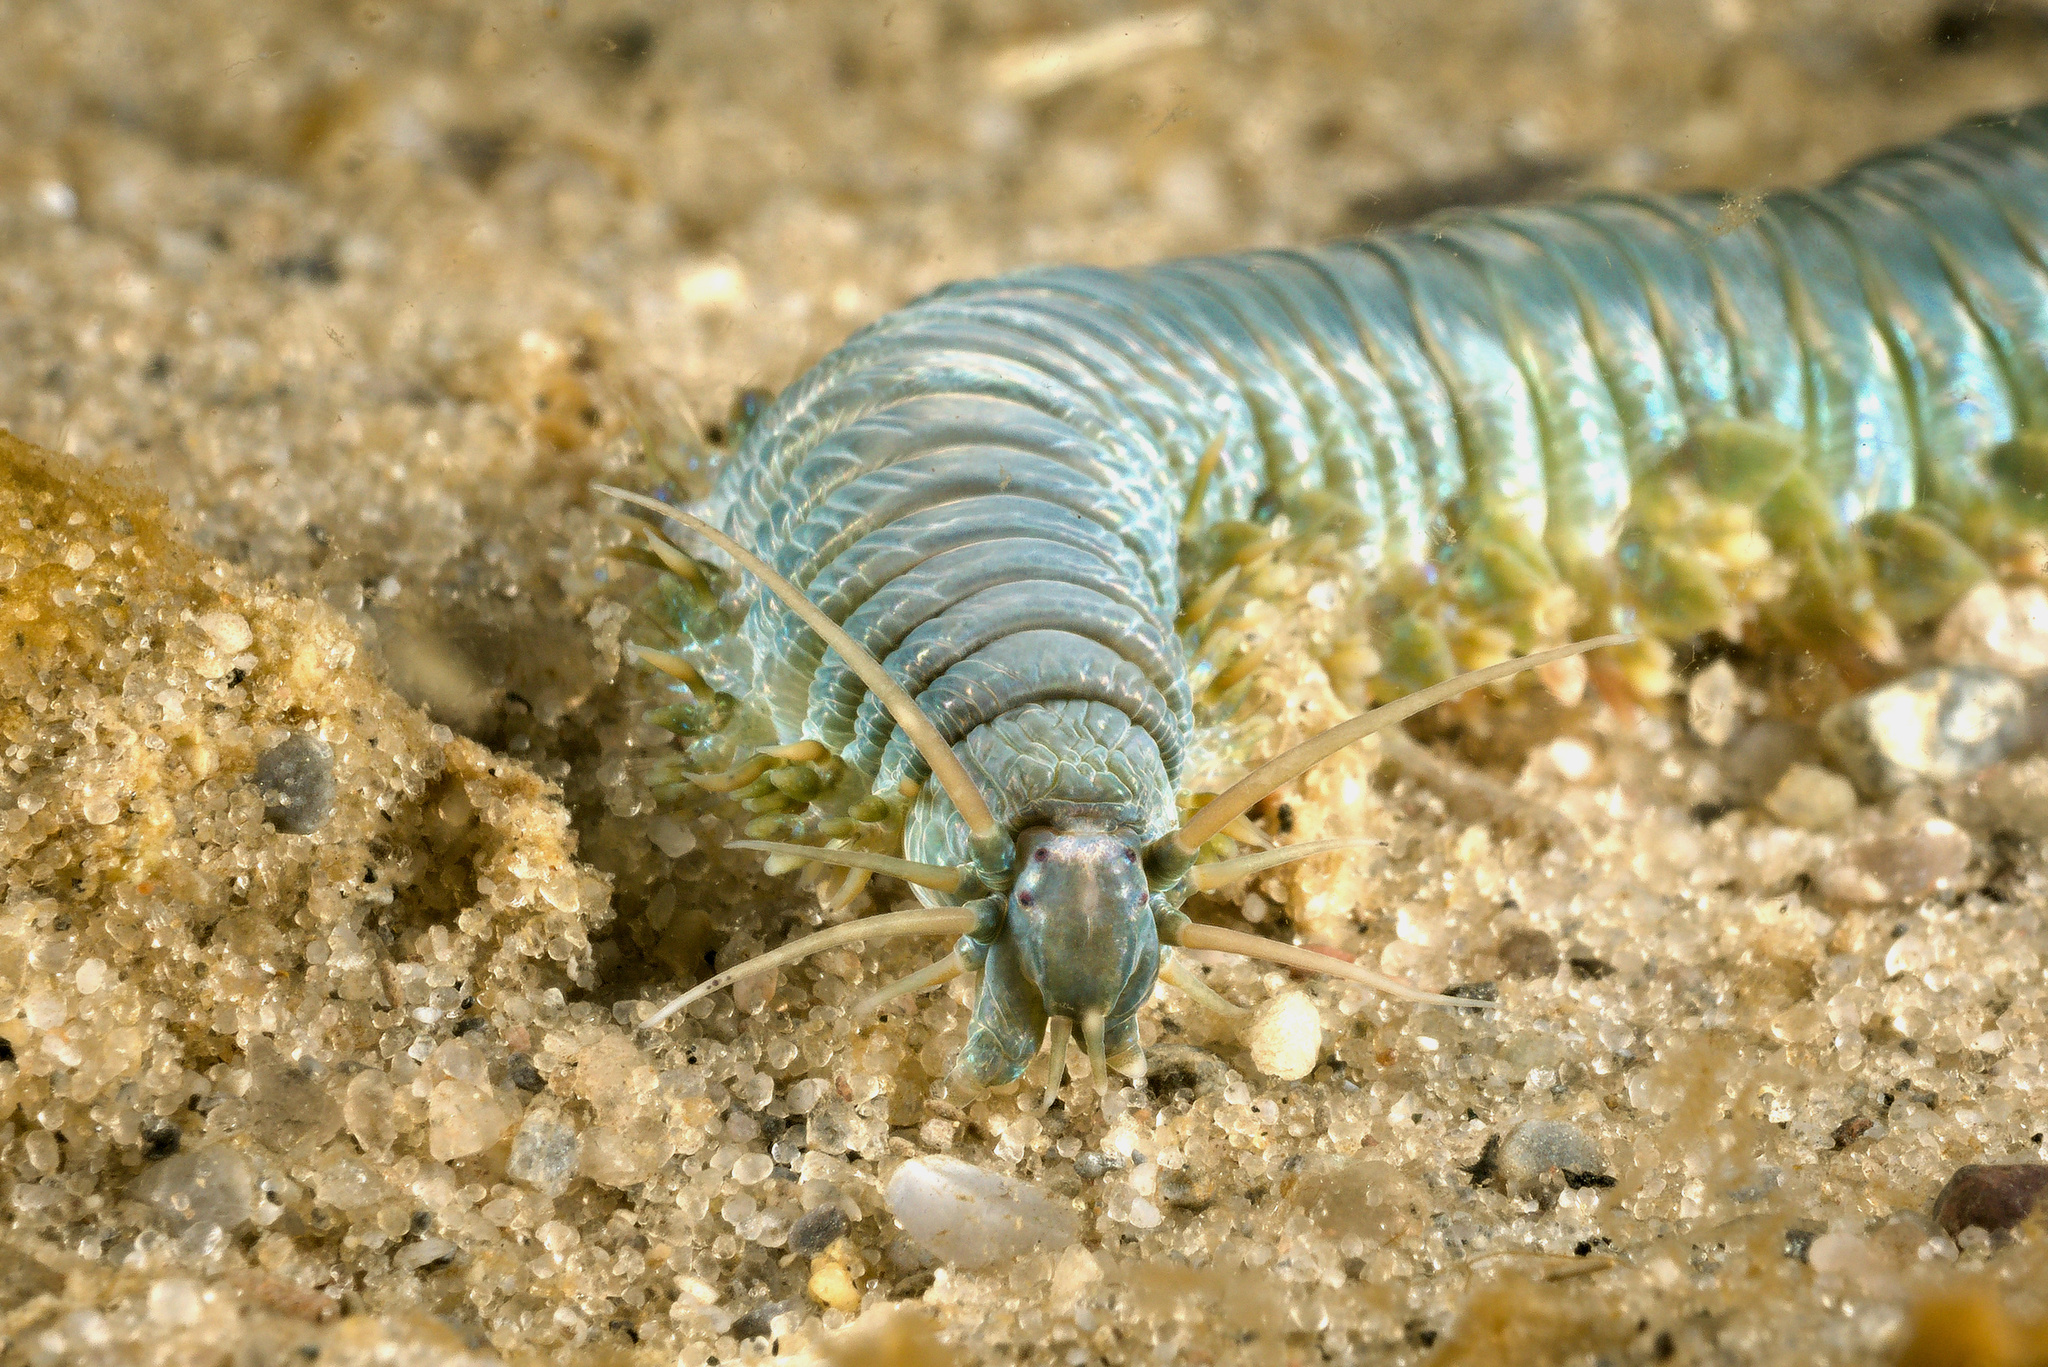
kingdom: Animalia
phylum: Annelida
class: Polychaeta
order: Phyllodocida
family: Nereididae
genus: Alitta
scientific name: Alitta virens
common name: King ragworm
